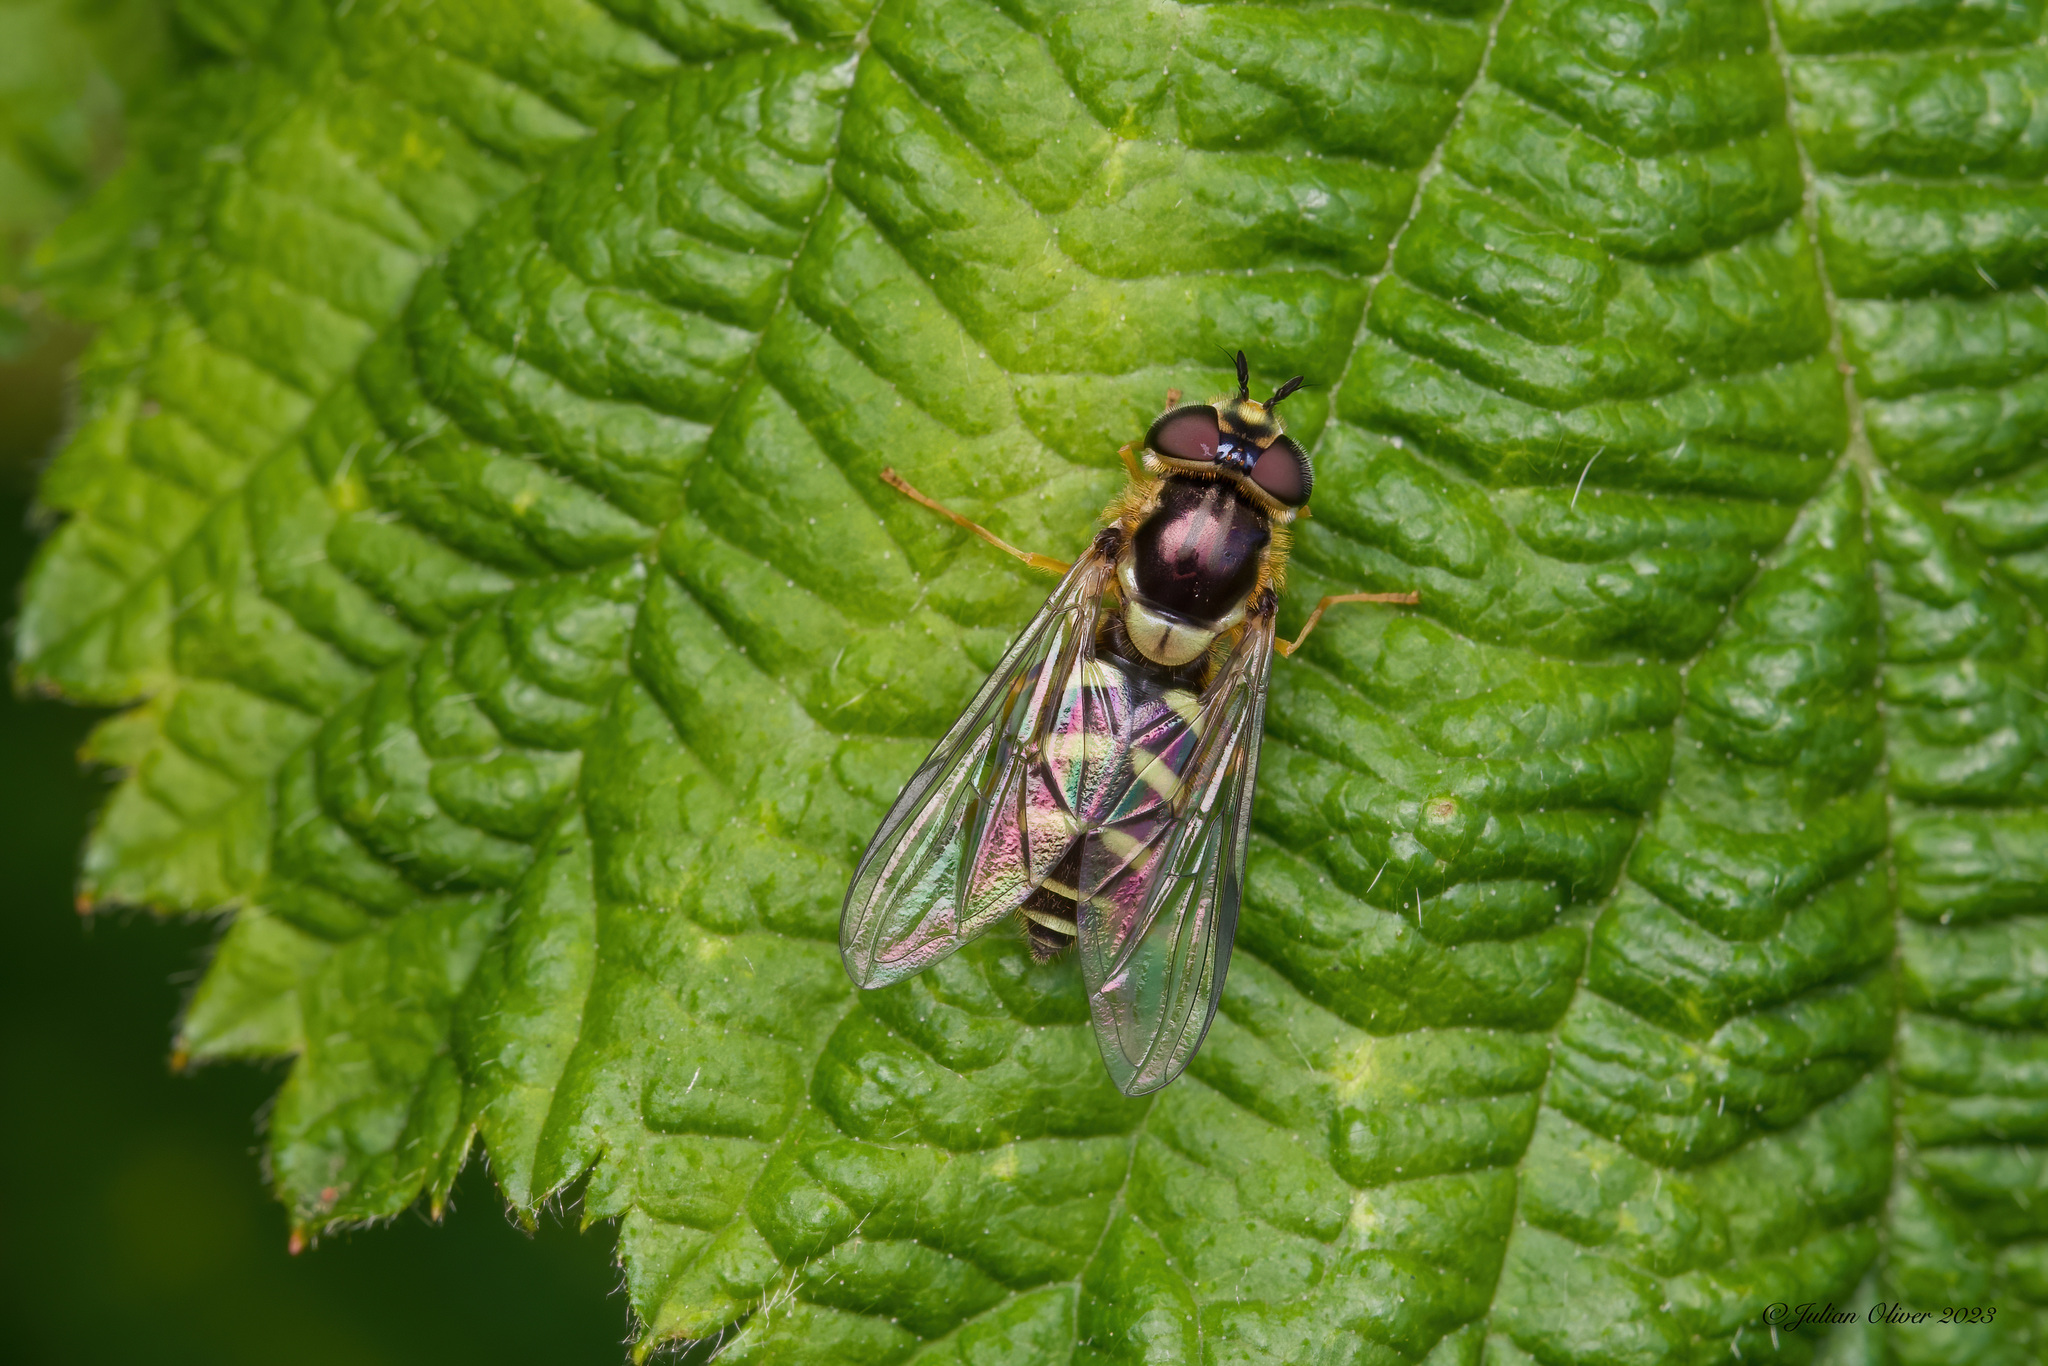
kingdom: Animalia
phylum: Arthropoda
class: Insecta
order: Diptera
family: Syrphidae
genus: Dasysyrphus
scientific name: Dasysyrphus albostriatus
